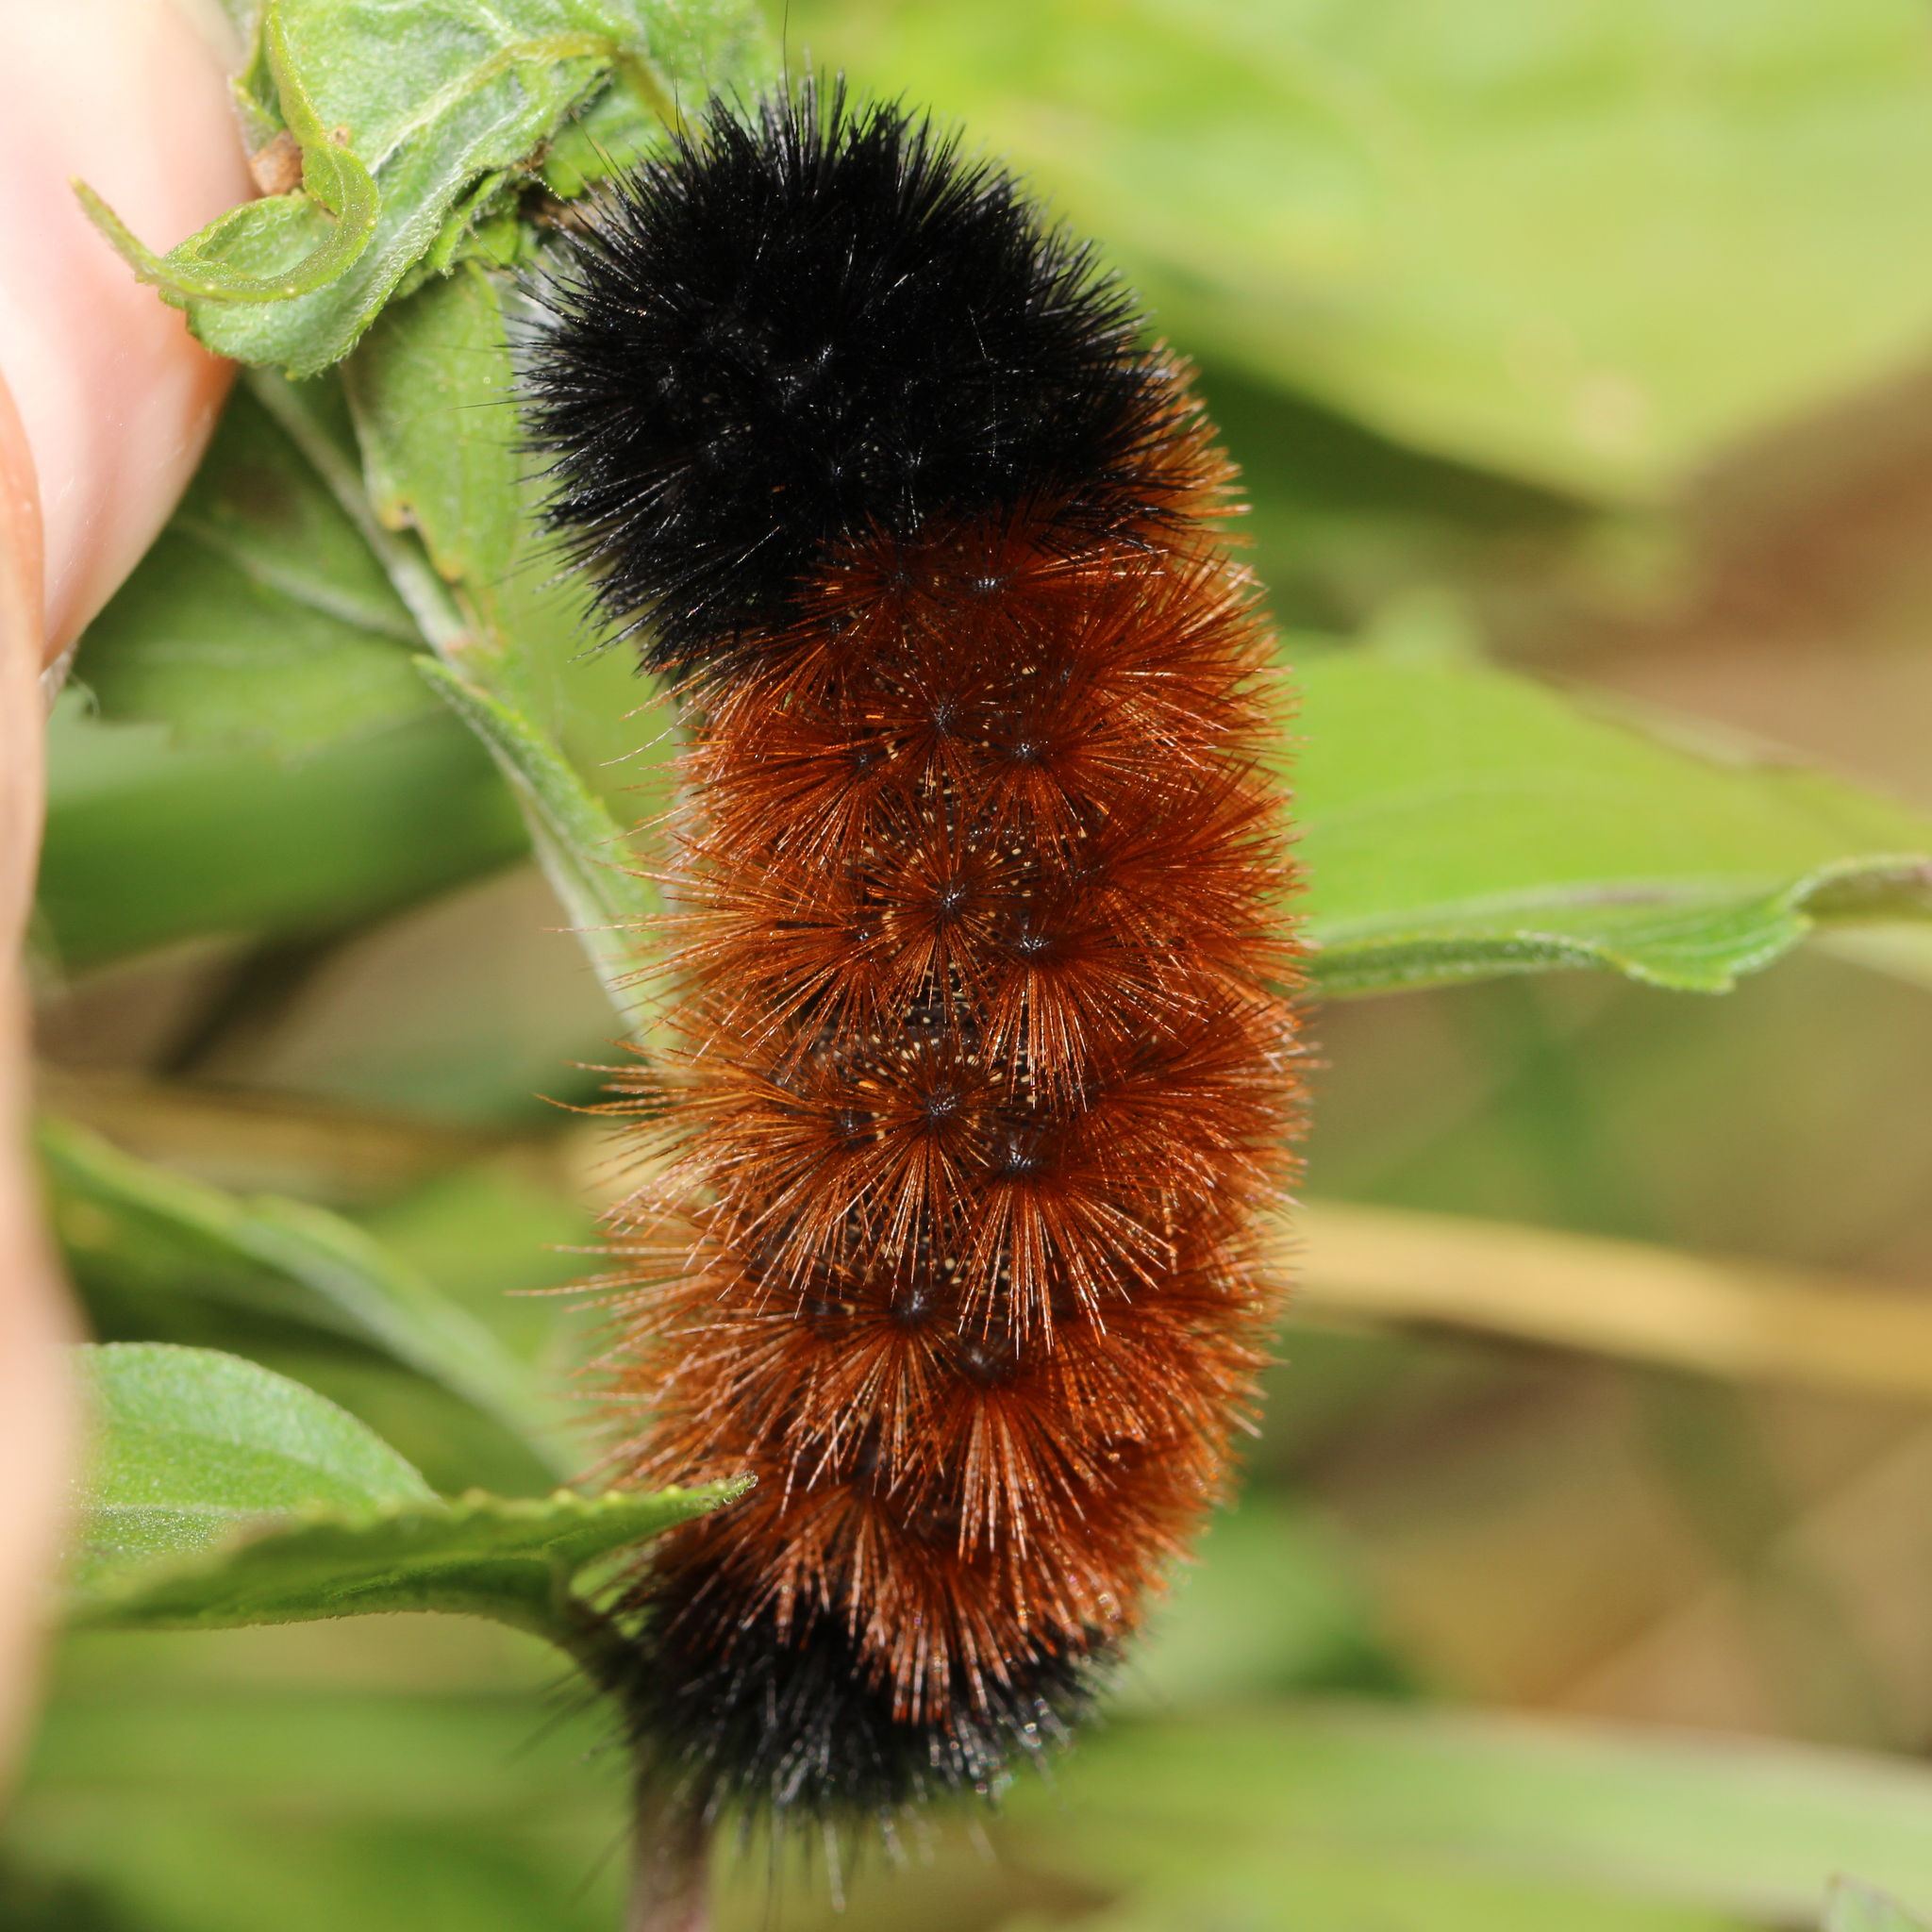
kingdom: Animalia
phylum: Arthropoda
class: Insecta
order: Lepidoptera
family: Erebidae
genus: Pyrrharctia
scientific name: Pyrrharctia isabella
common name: Isabella tiger moth
